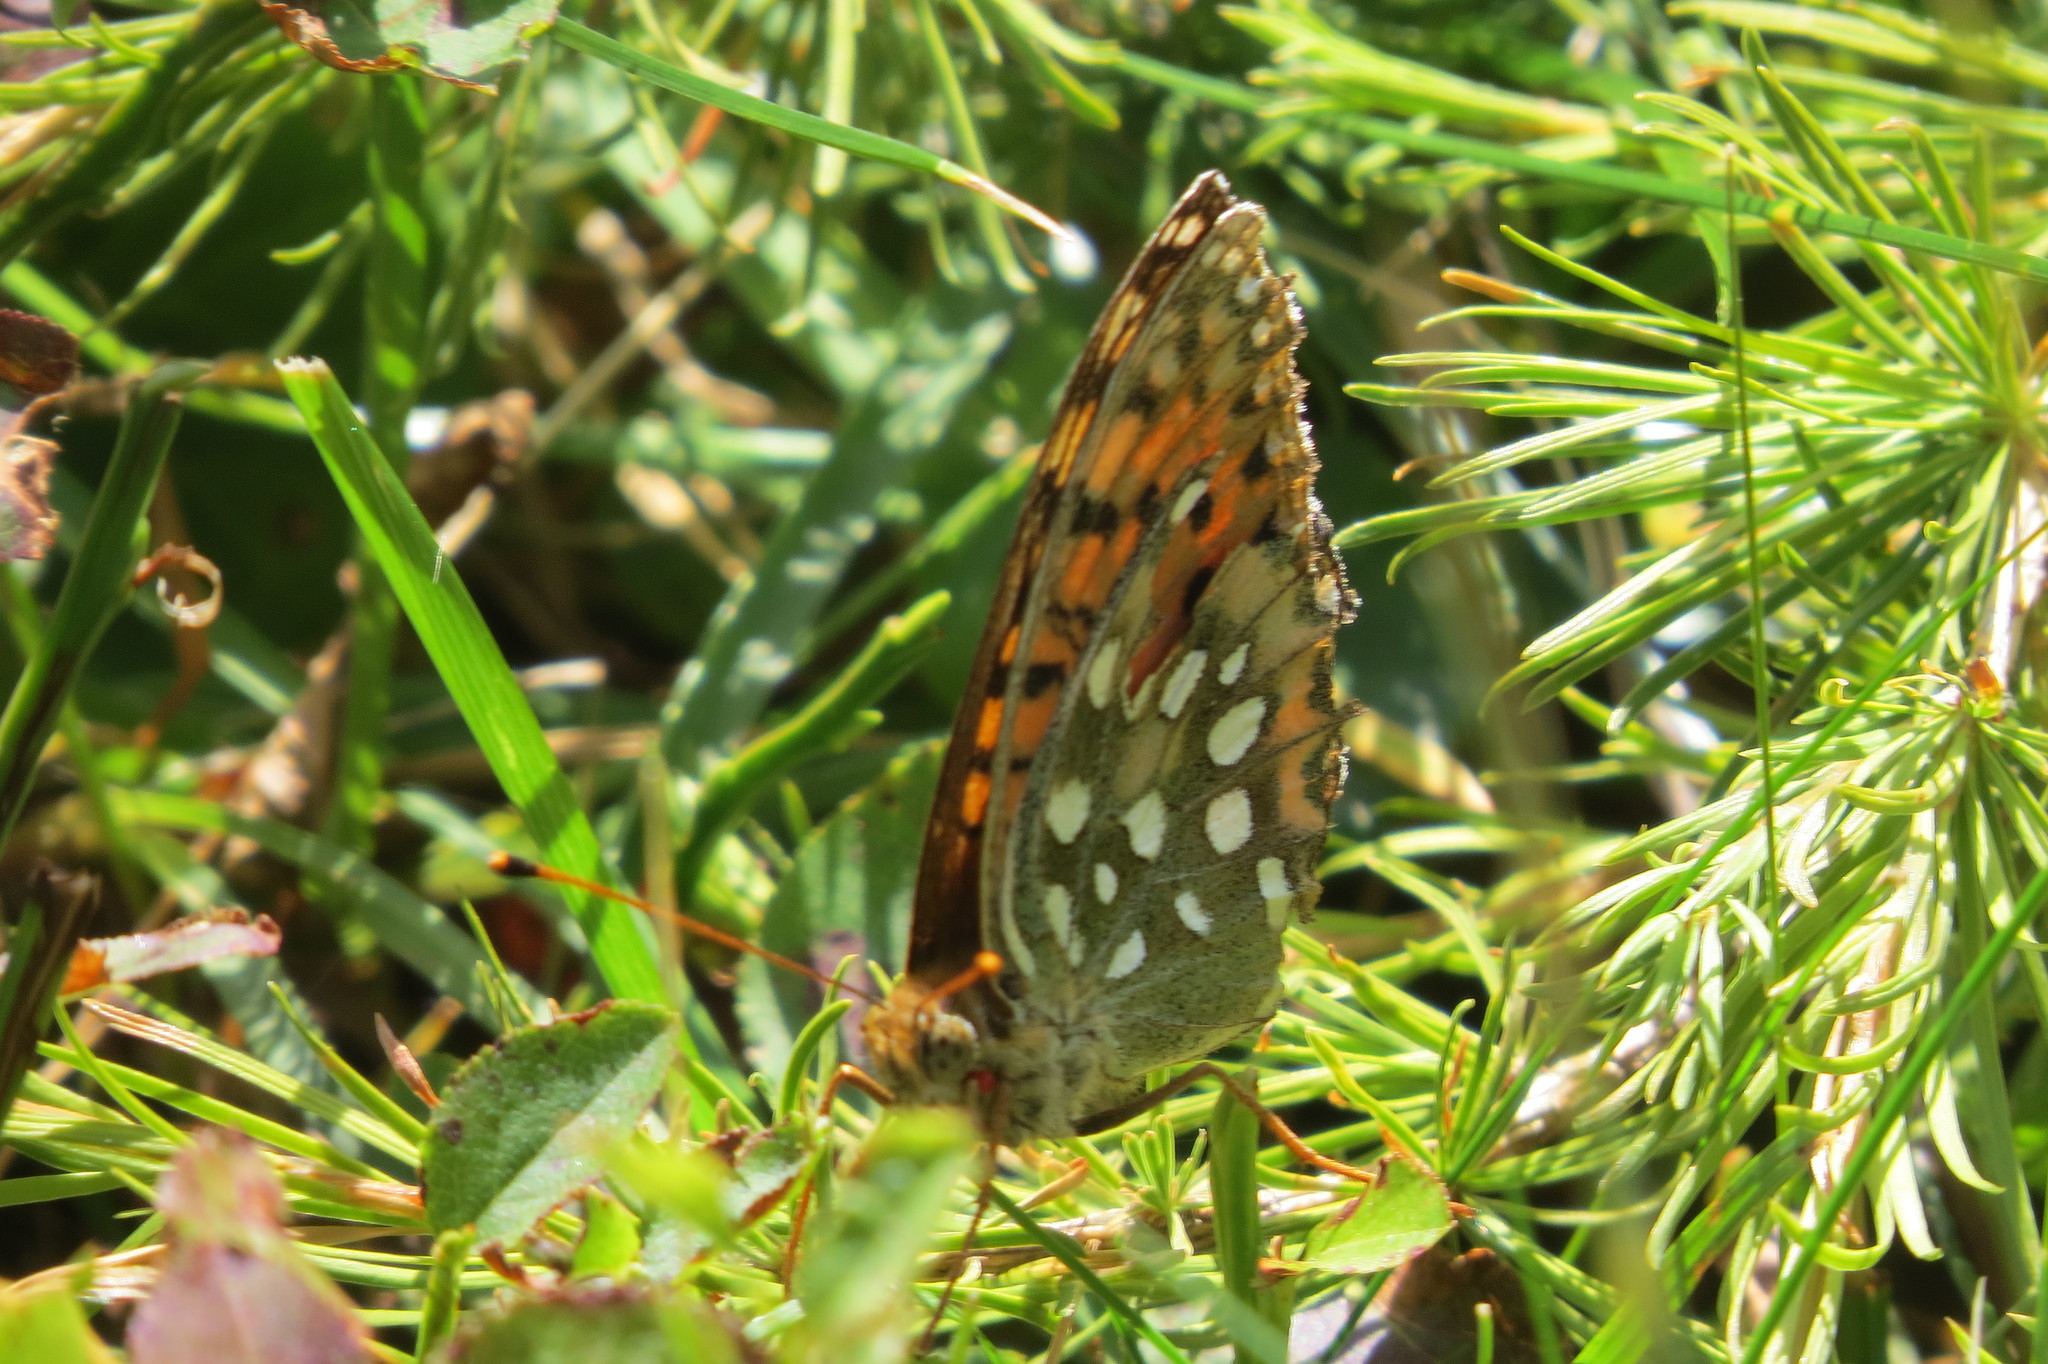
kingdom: Animalia
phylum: Arthropoda
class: Insecta
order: Lepidoptera
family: Nymphalidae
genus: Speyeria
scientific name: Speyeria aglaja
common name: Dark green fritillary
